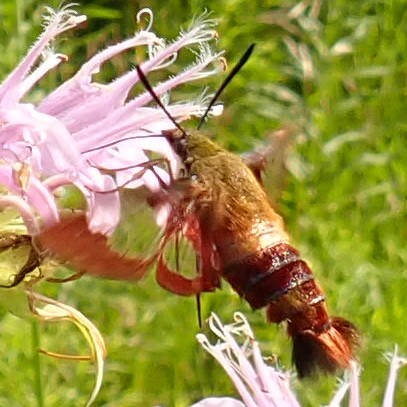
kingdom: Animalia
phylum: Arthropoda
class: Insecta
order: Lepidoptera
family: Sphingidae
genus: Hemaris
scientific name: Hemaris thysbe
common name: Common clear-wing
